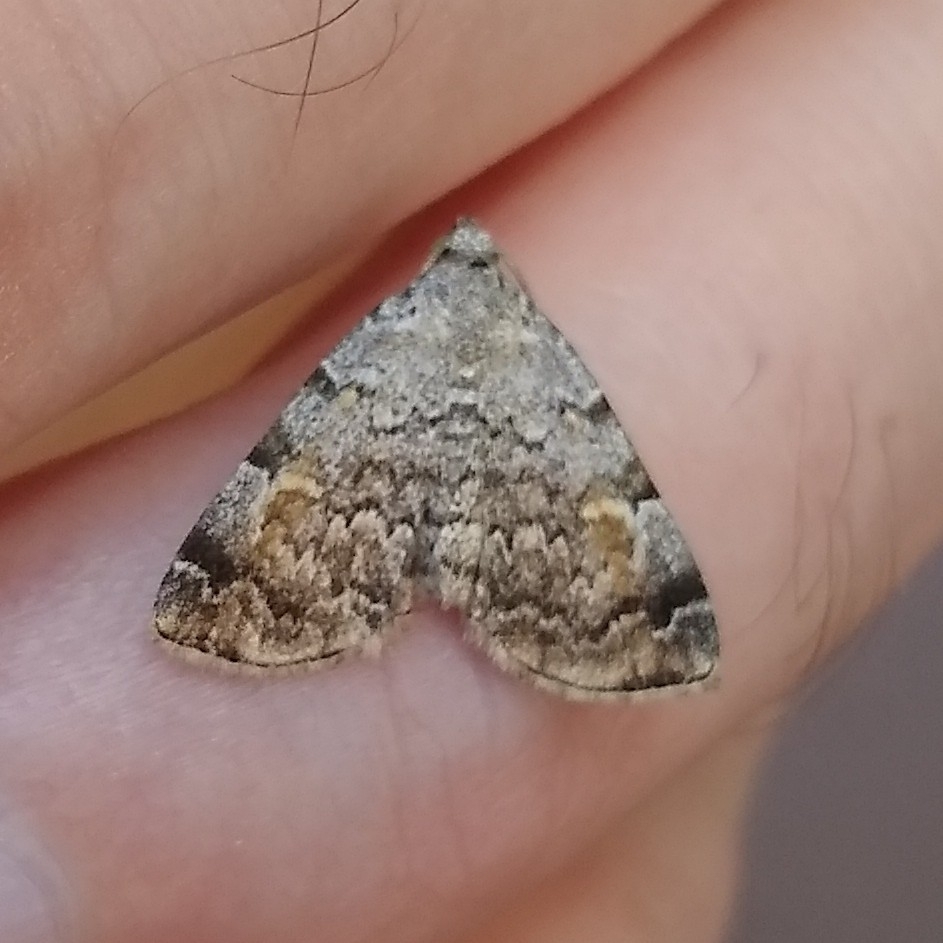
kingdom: Animalia
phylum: Arthropoda
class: Insecta
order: Lepidoptera
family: Erebidae
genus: Idia
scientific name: Idia americalis
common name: American idia moth
